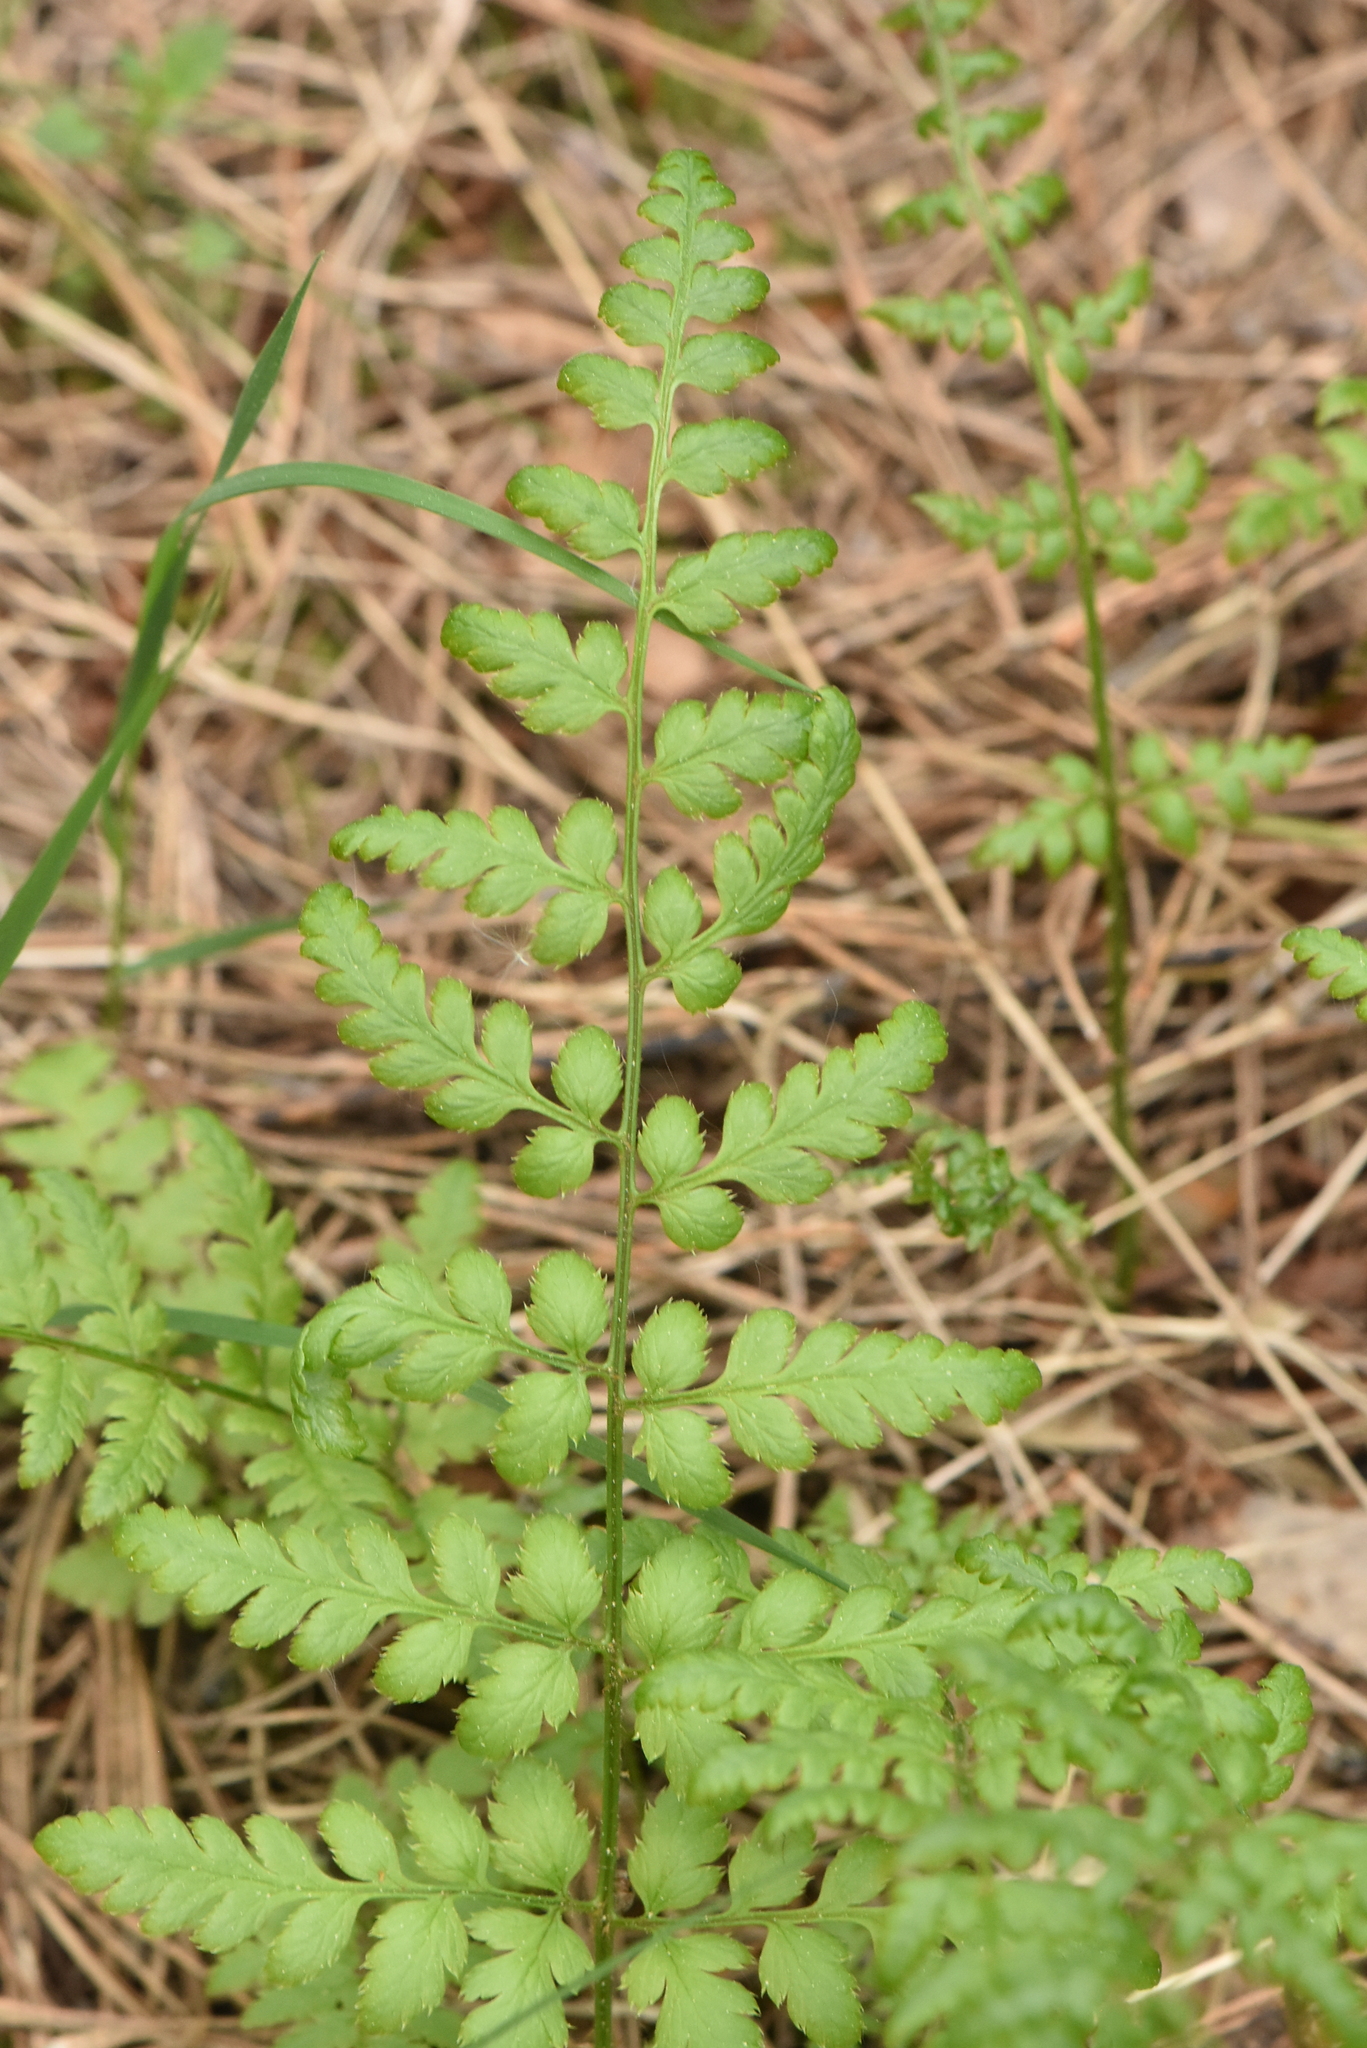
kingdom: Plantae
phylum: Tracheophyta
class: Polypodiopsida
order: Polypodiales
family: Dryopteridaceae
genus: Dryopteris
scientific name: Dryopteris carthusiana
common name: Narrow buckler-fern
